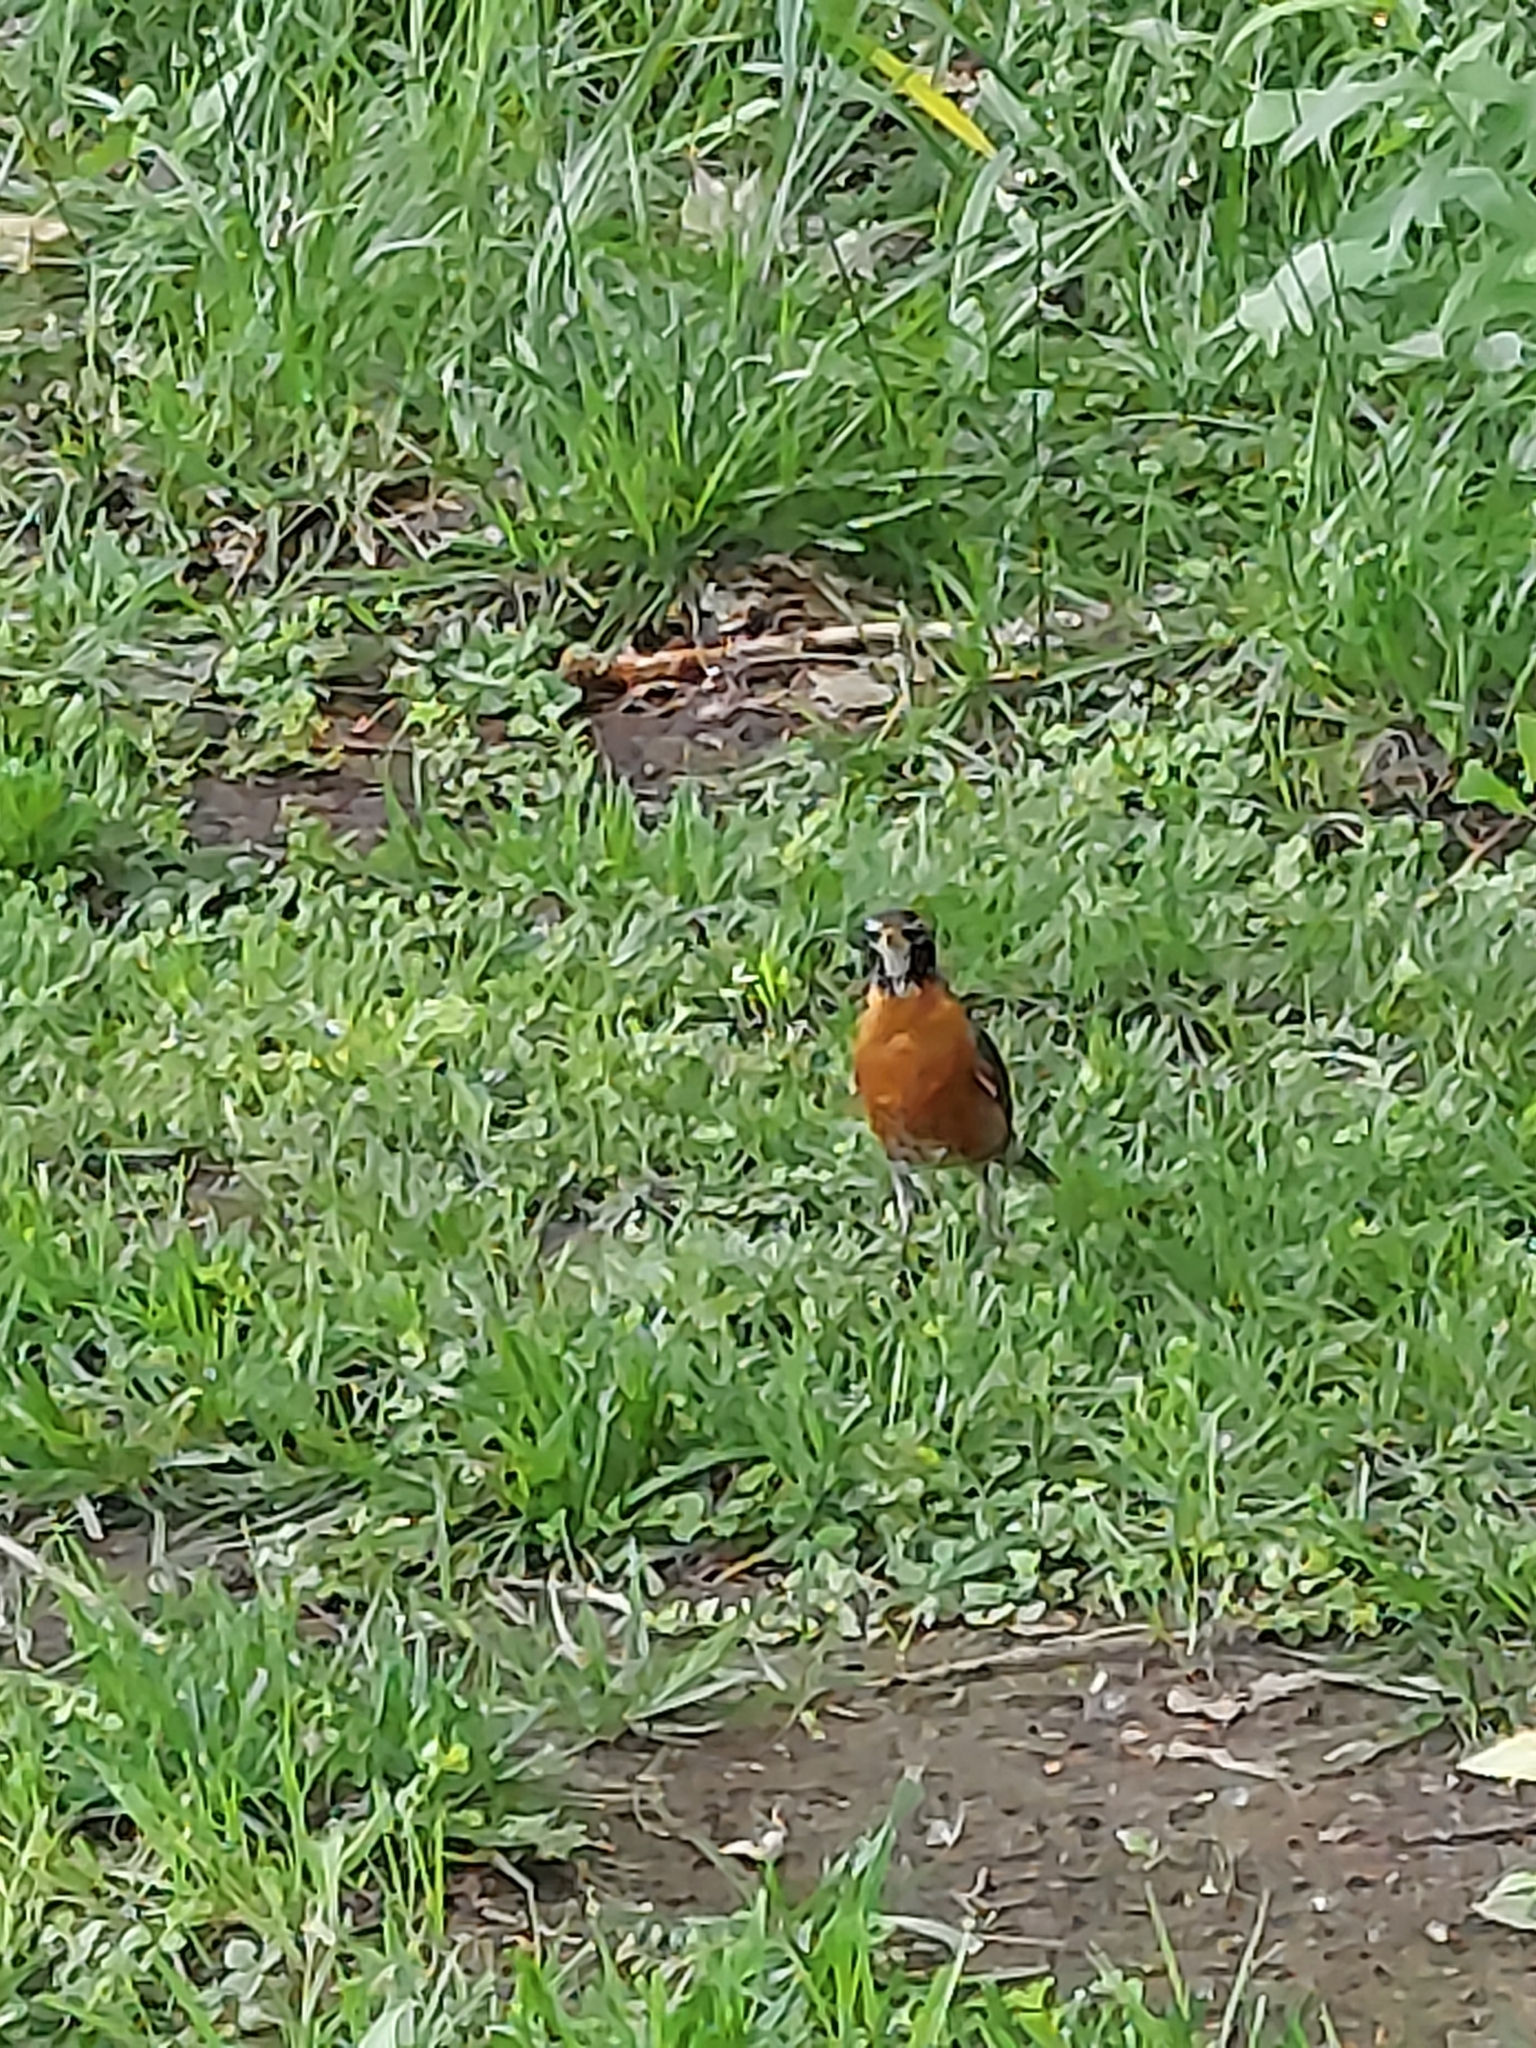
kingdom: Animalia
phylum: Chordata
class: Aves
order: Passeriformes
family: Turdidae
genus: Turdus
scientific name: Turdus migratorius
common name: American robin
